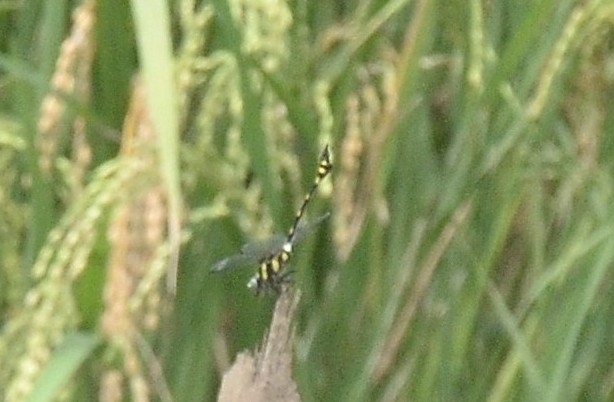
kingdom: Animalia
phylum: Arthropoda
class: Insecta
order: Odonata
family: Gomphidae
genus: Ictinogomphus
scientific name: Ictinogomphus rapax
